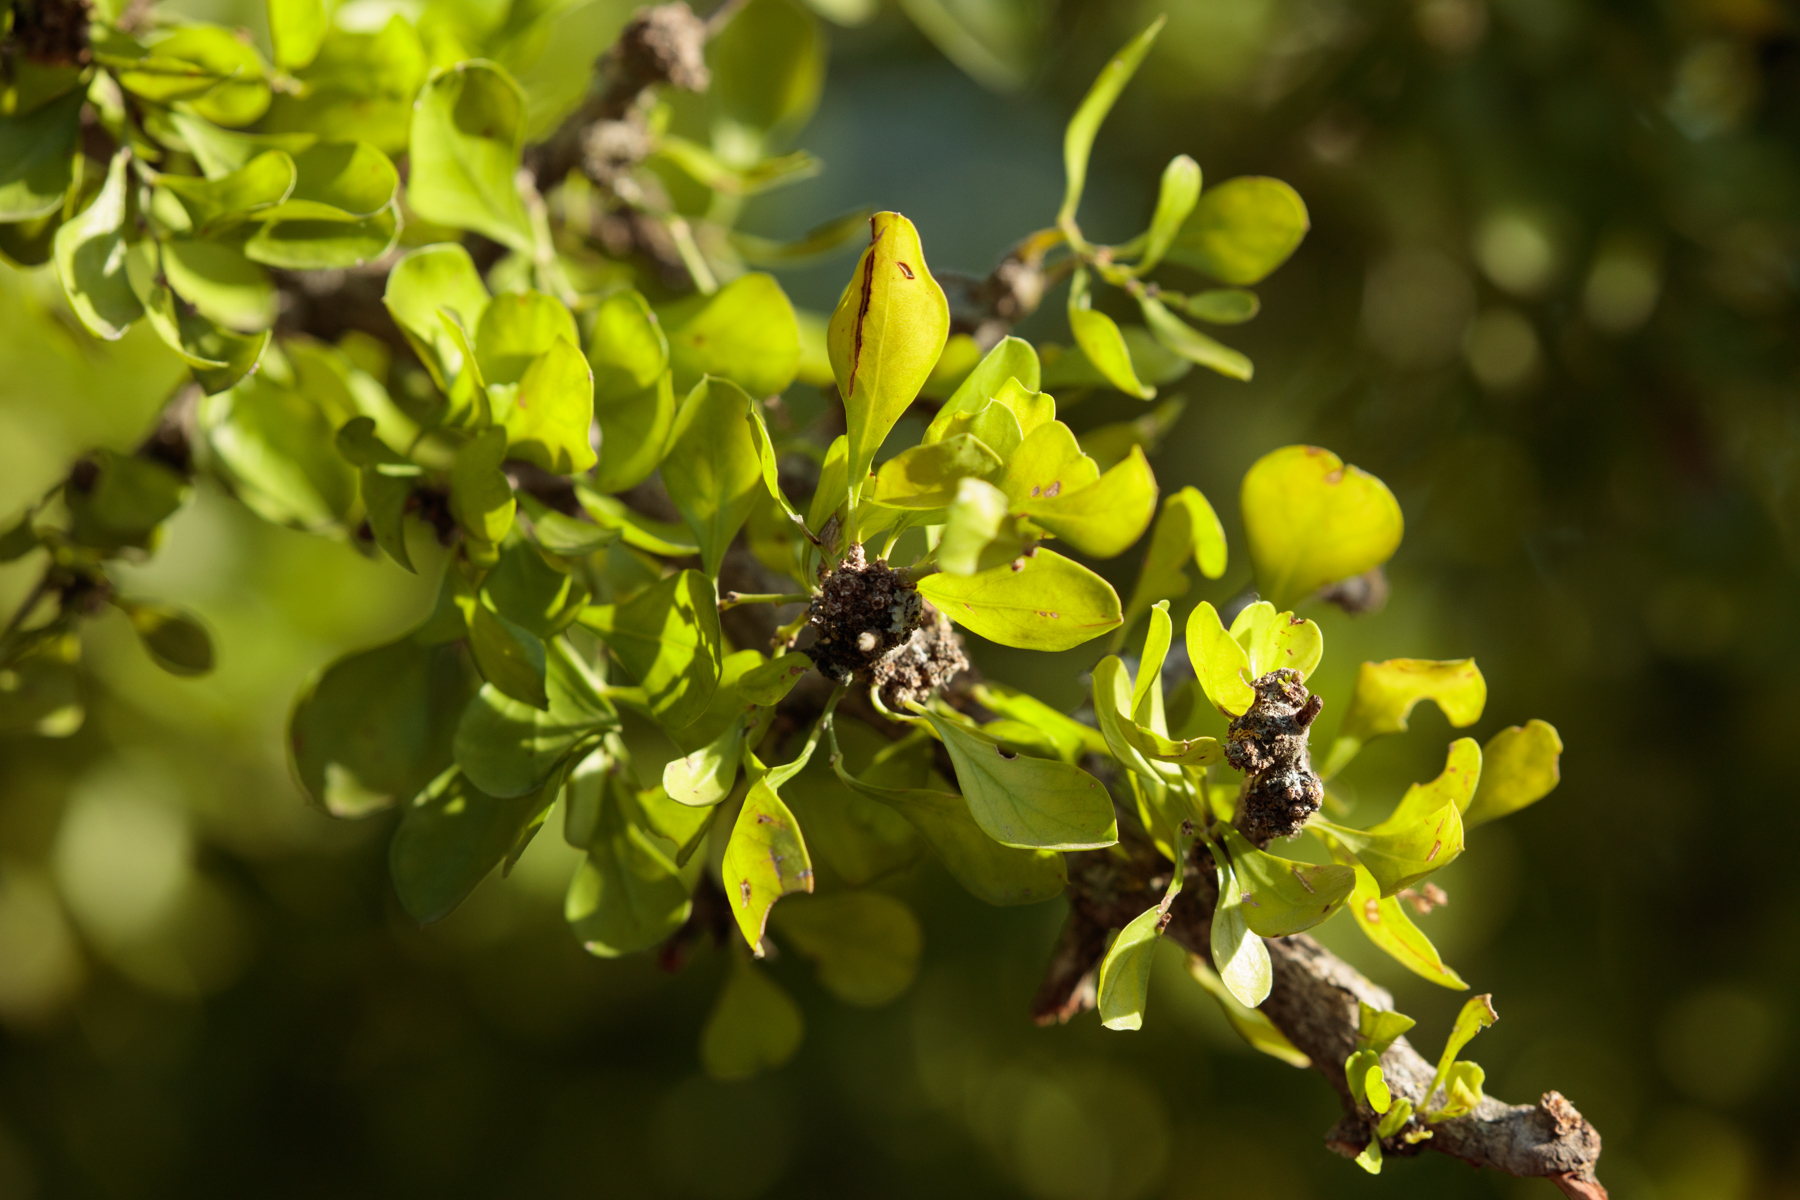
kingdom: Plantae
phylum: Tracheophyta
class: Magnoliopsida
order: Rosales
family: Rhamnaceae
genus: Condalia
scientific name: Condalia hookeri
